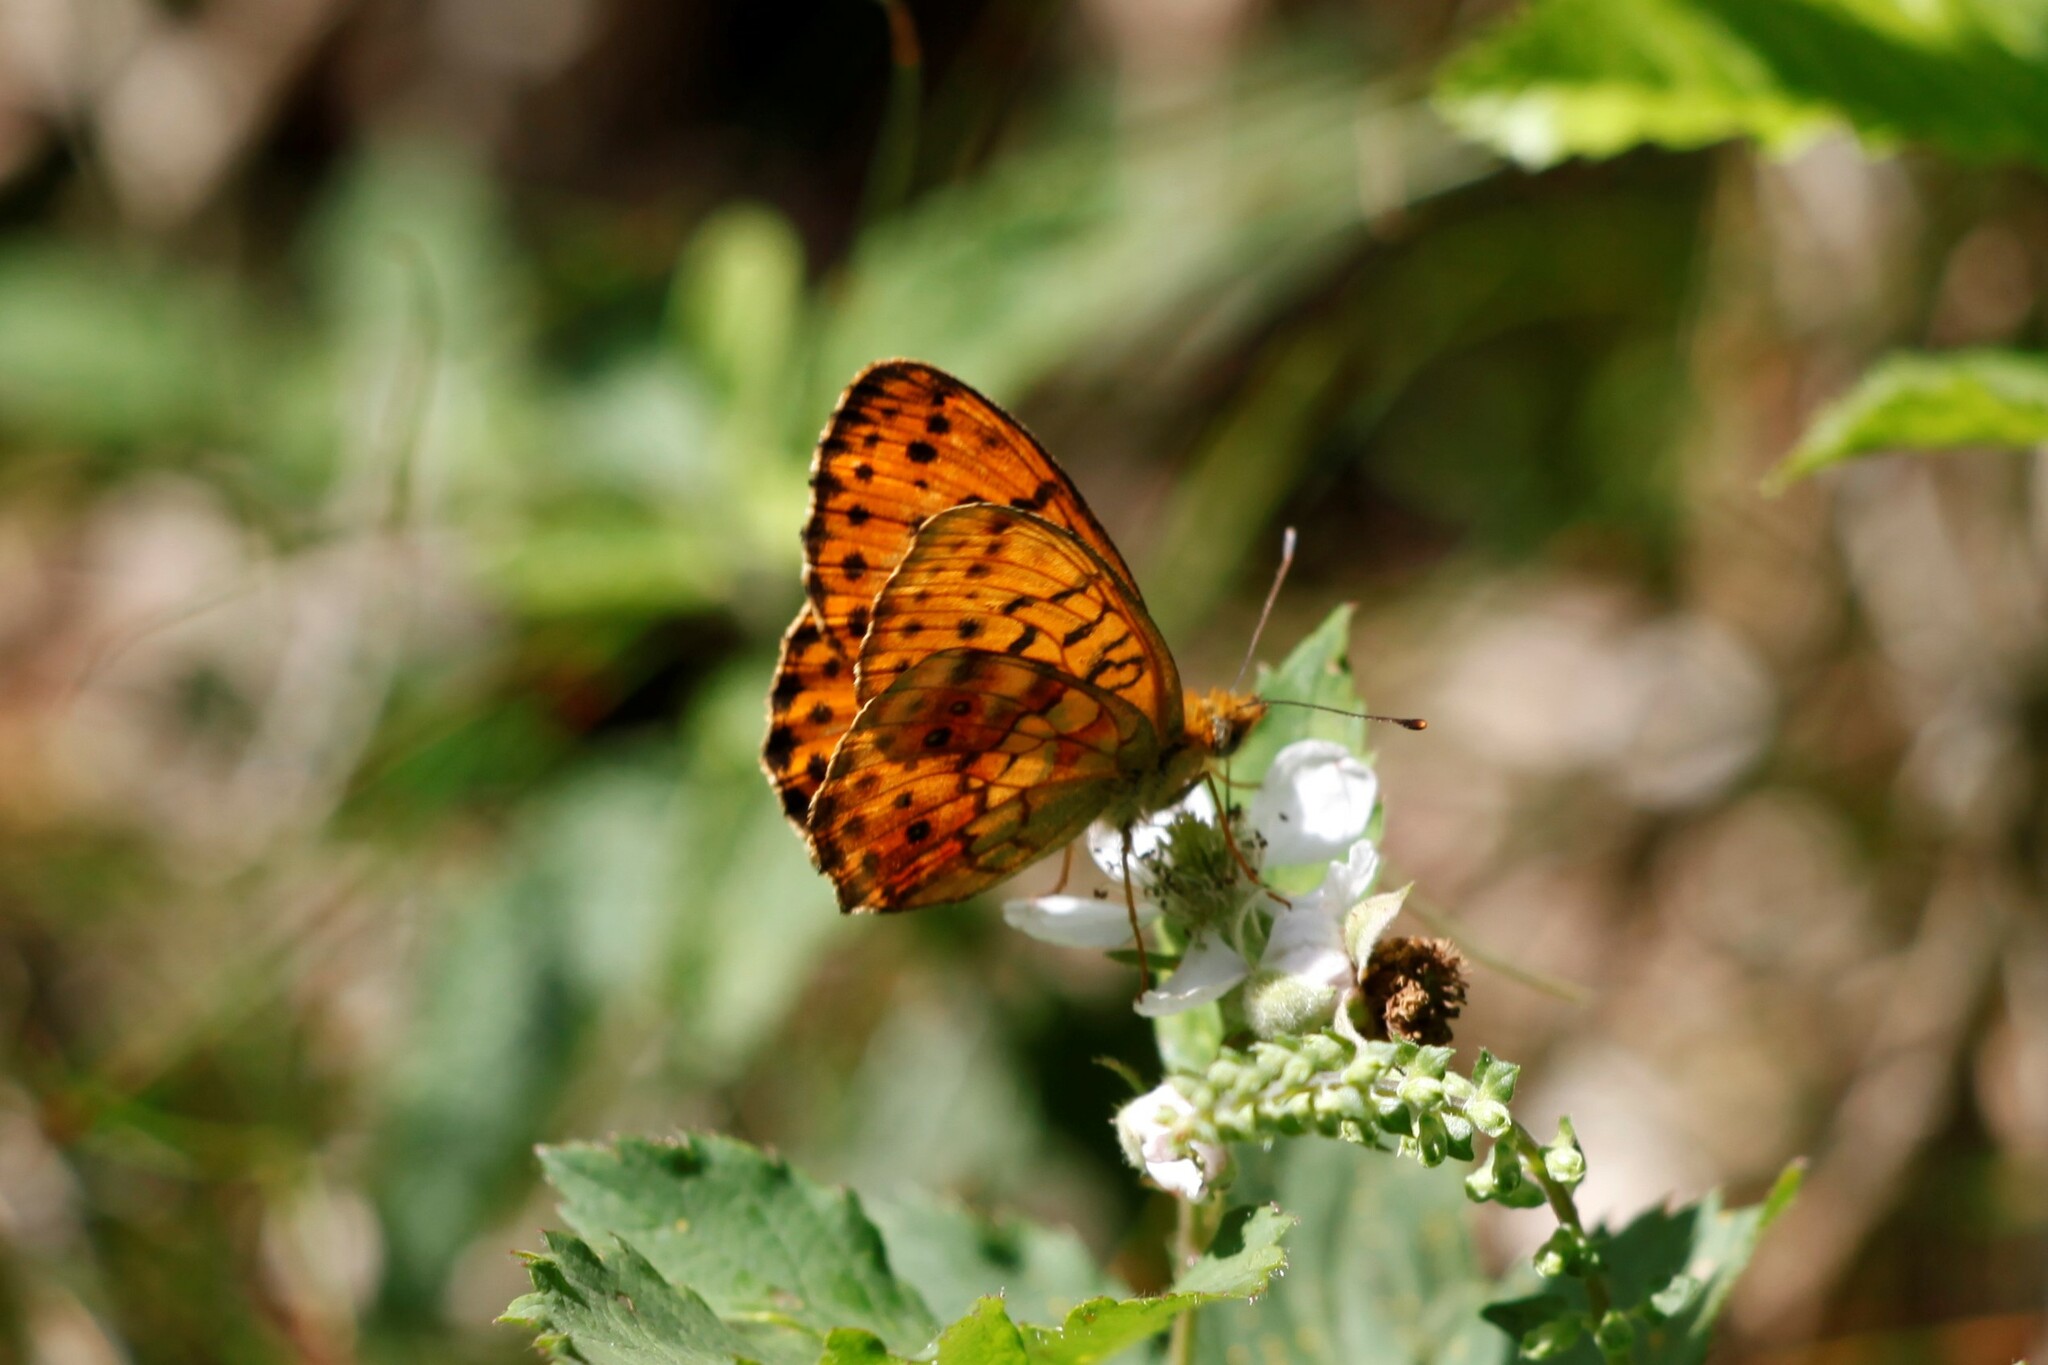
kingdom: Animalia
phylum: Arthropoda
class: Insecta
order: Lepidoptera
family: Nymphalidae
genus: Brenthis
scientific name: Brenthis daphne
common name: Marbled fritillary
